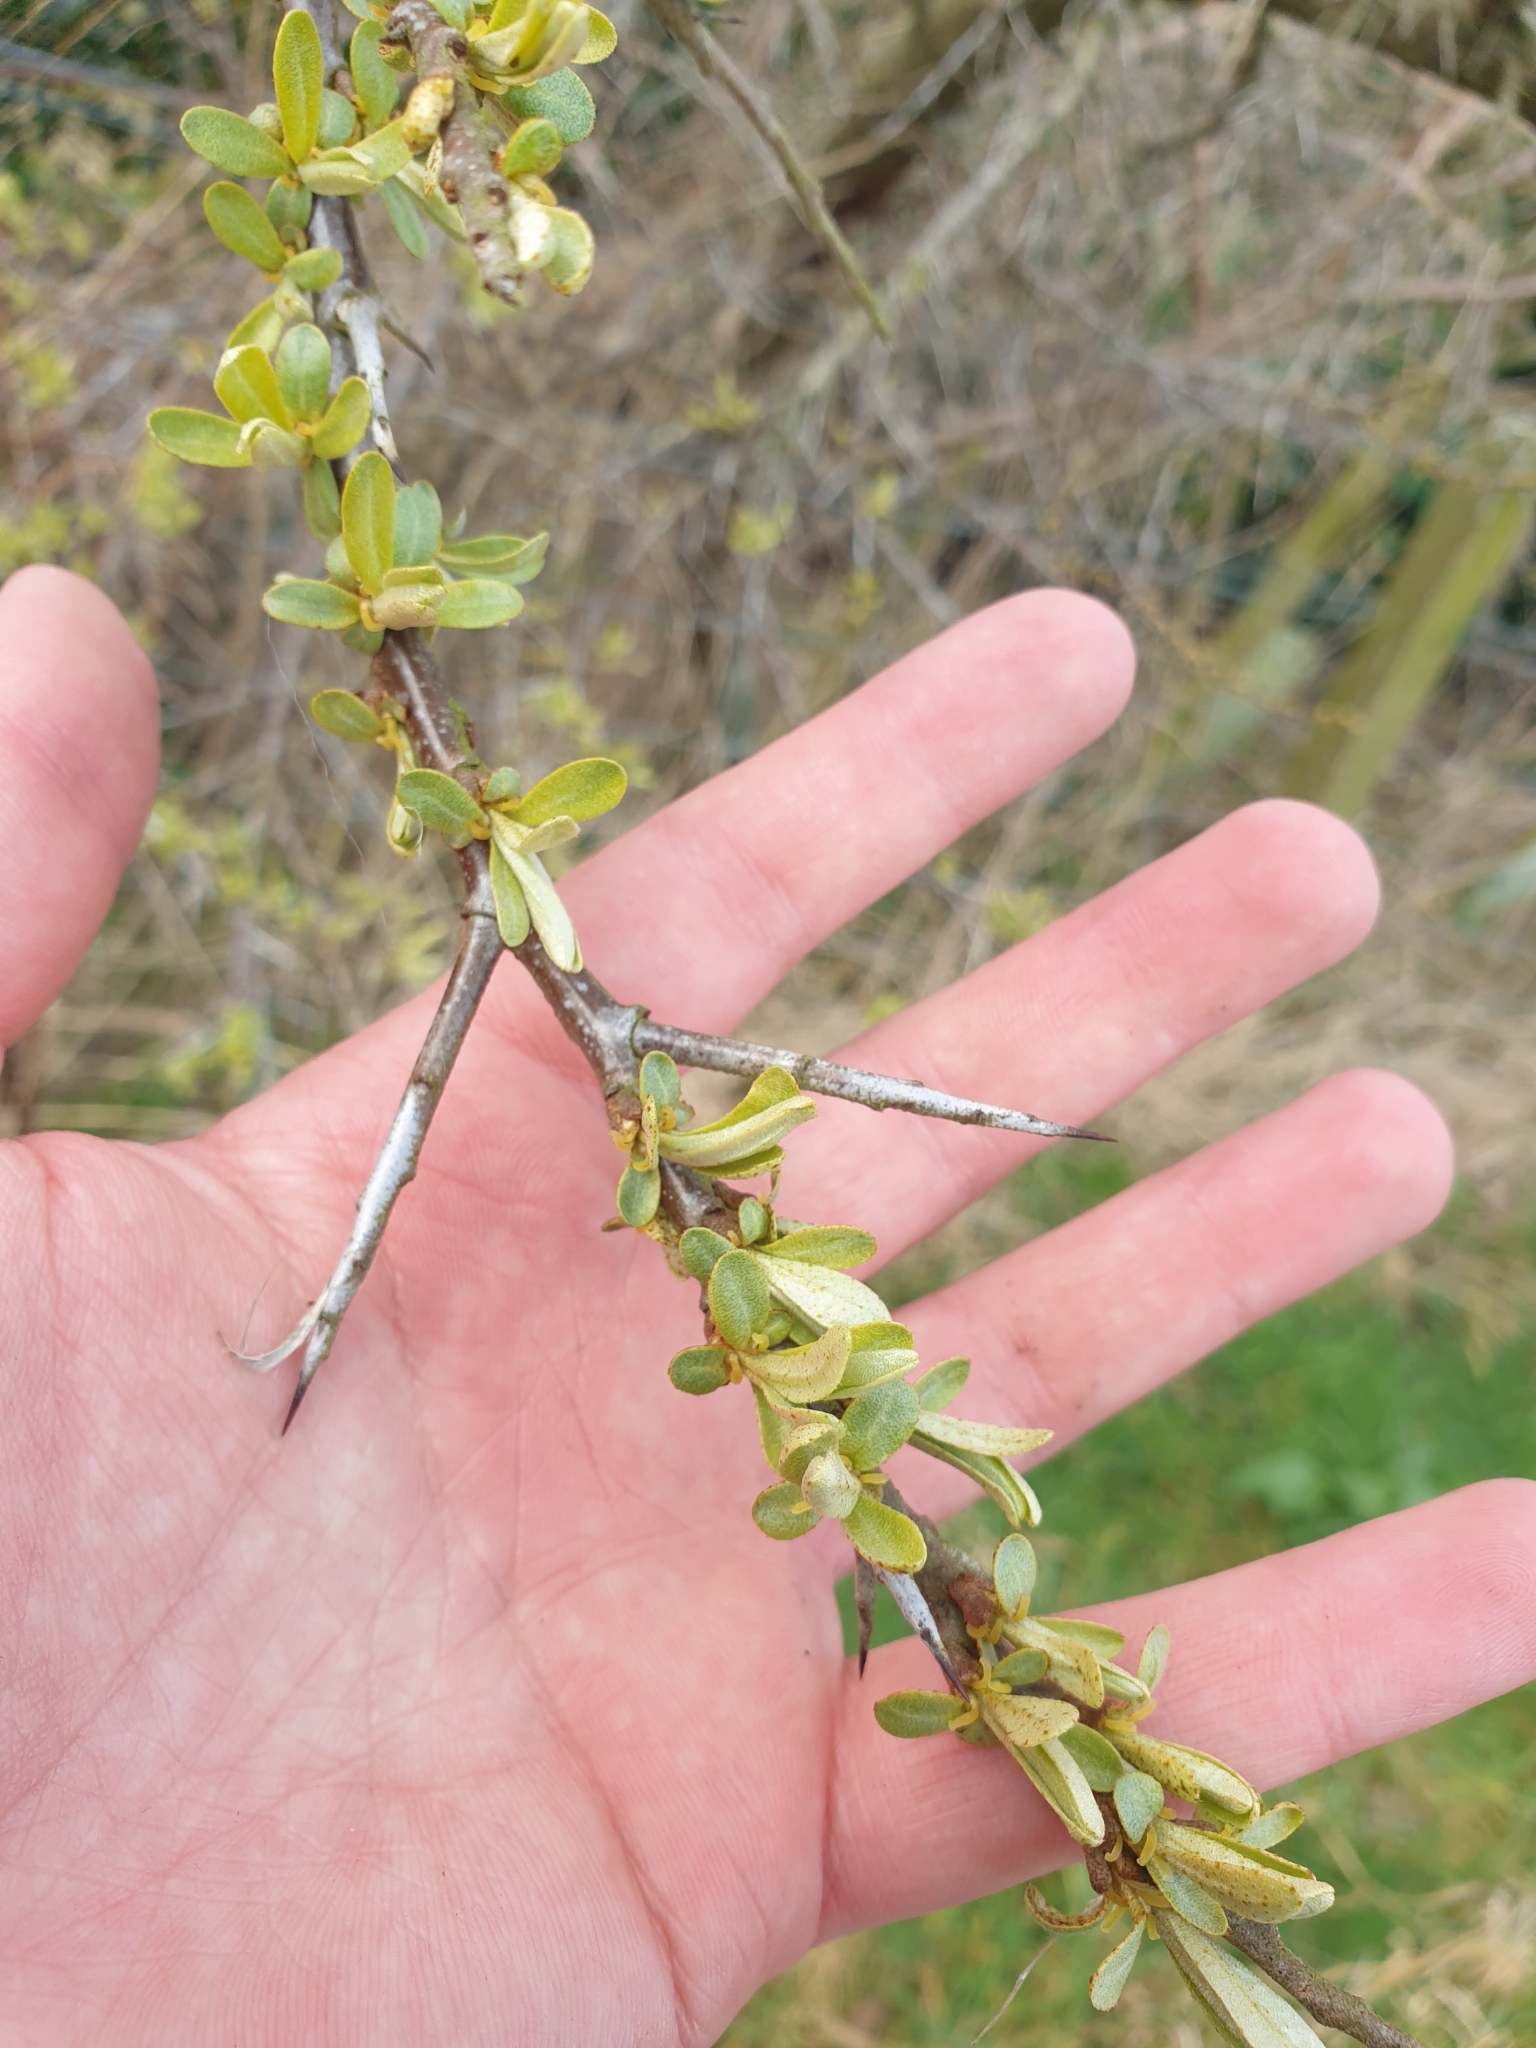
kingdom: Plantae
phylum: Tracheophyta
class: Magnoliopsida
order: Rosales
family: Elaeagnaceae
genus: Hippophae
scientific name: Hippophae rhamnoides
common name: Sea-buckthorn
